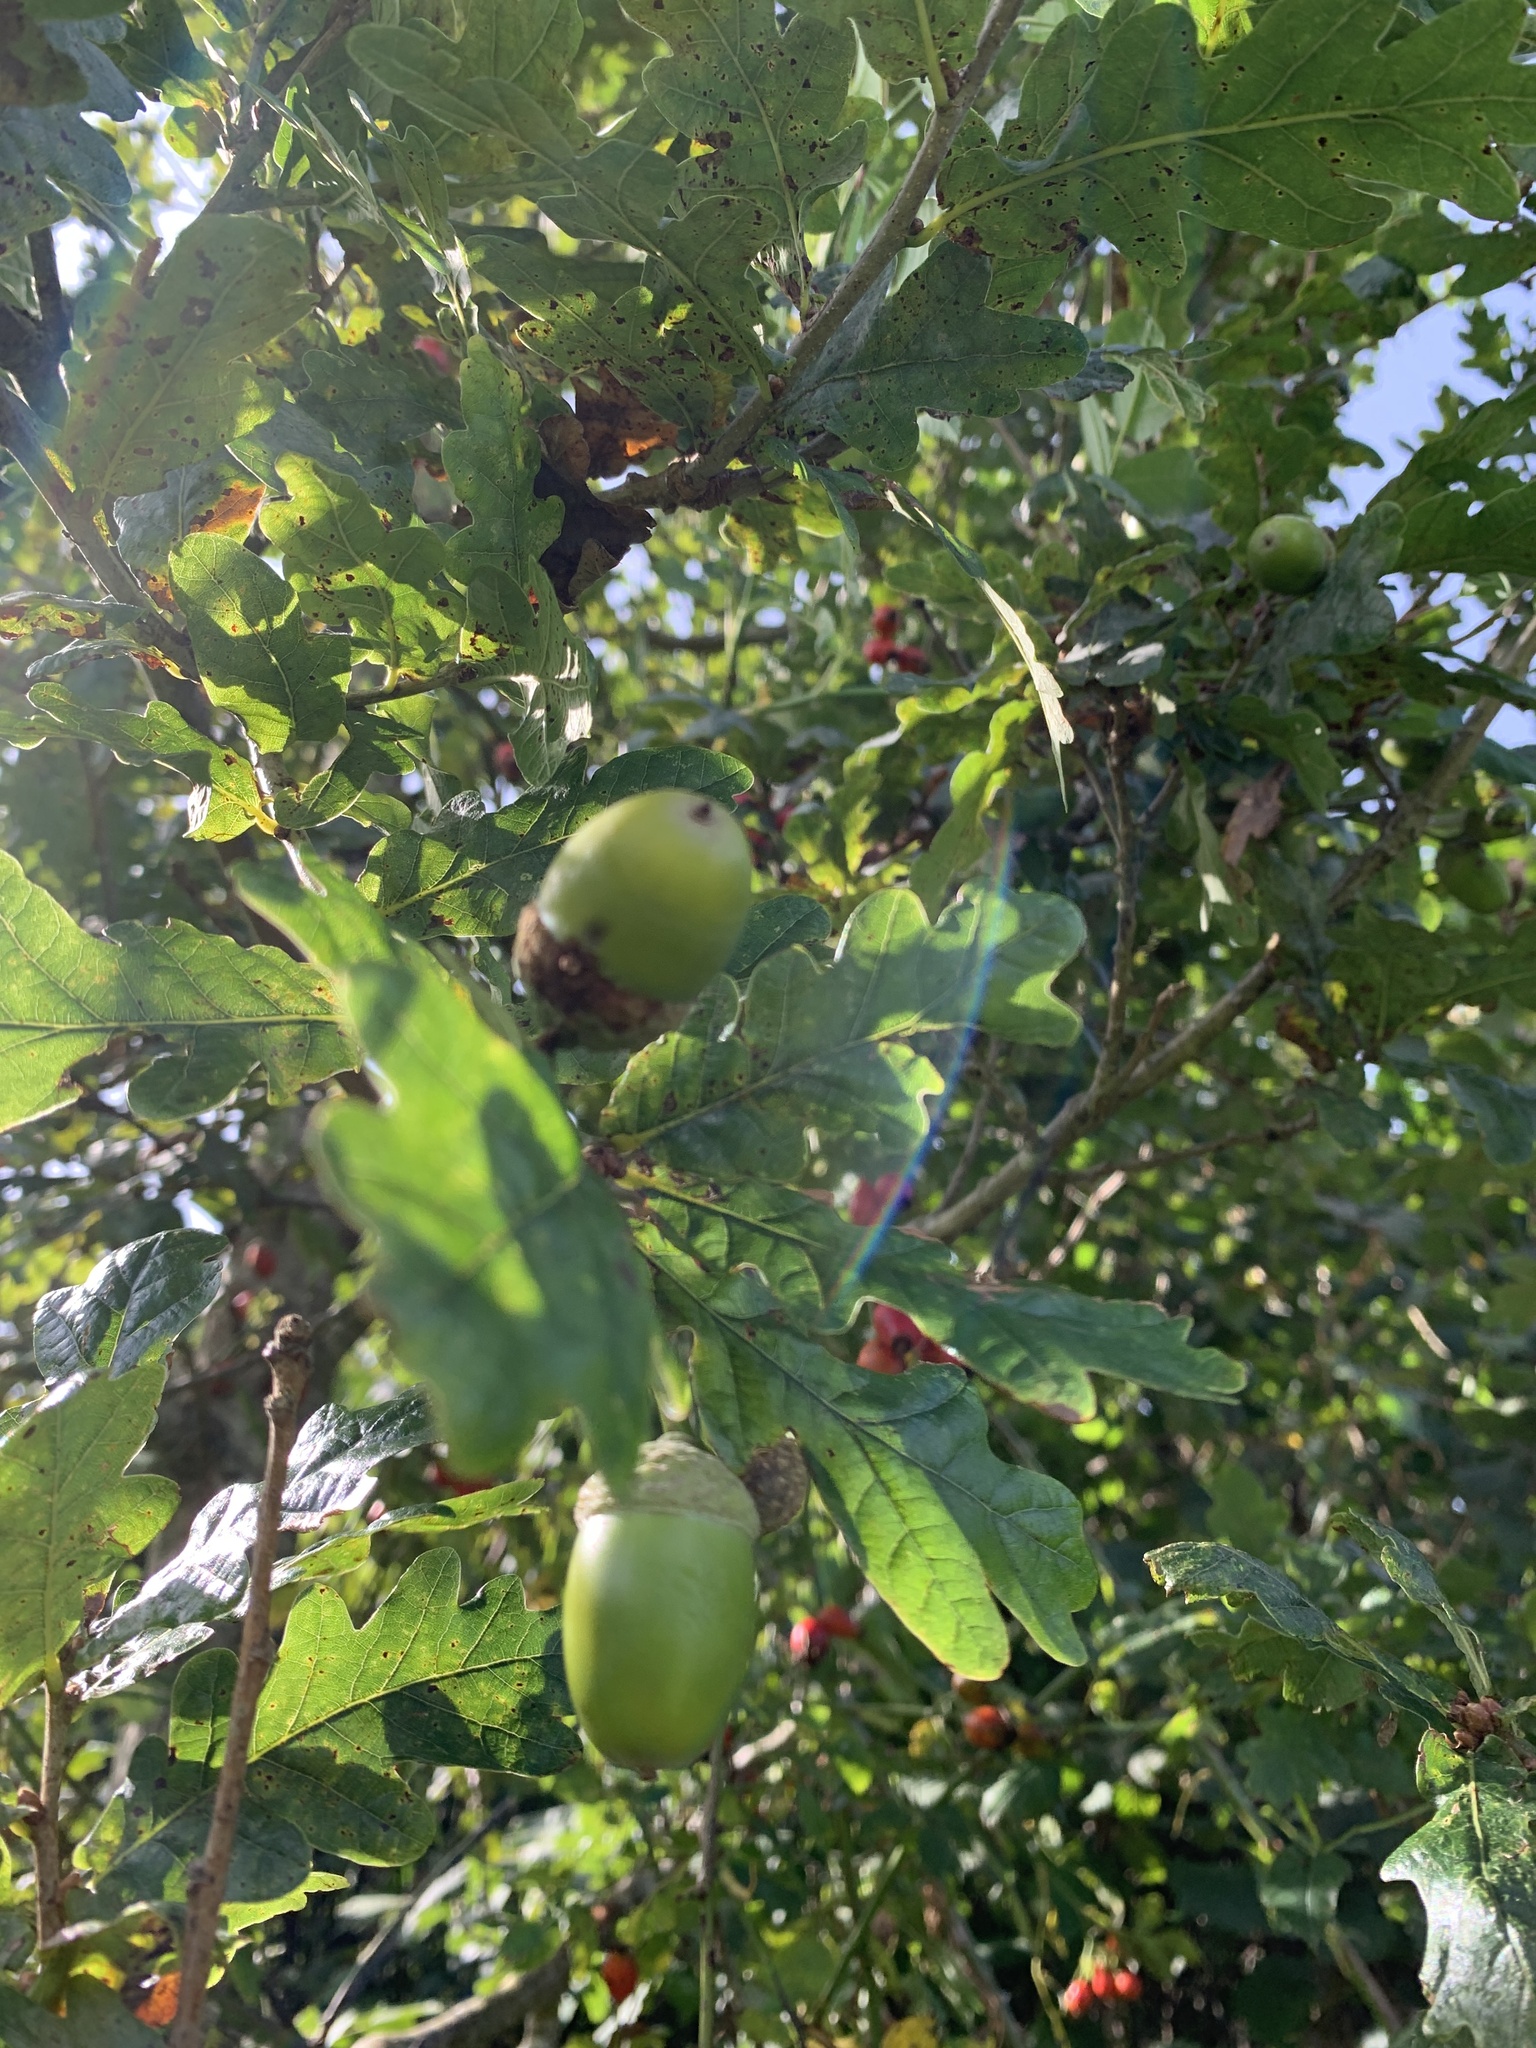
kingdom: Plantae
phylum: Tracheophyta
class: Magnoliopsida
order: Fagales
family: Fagaceae
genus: Quercus
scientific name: Quercus robur
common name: Pedunculate oak
